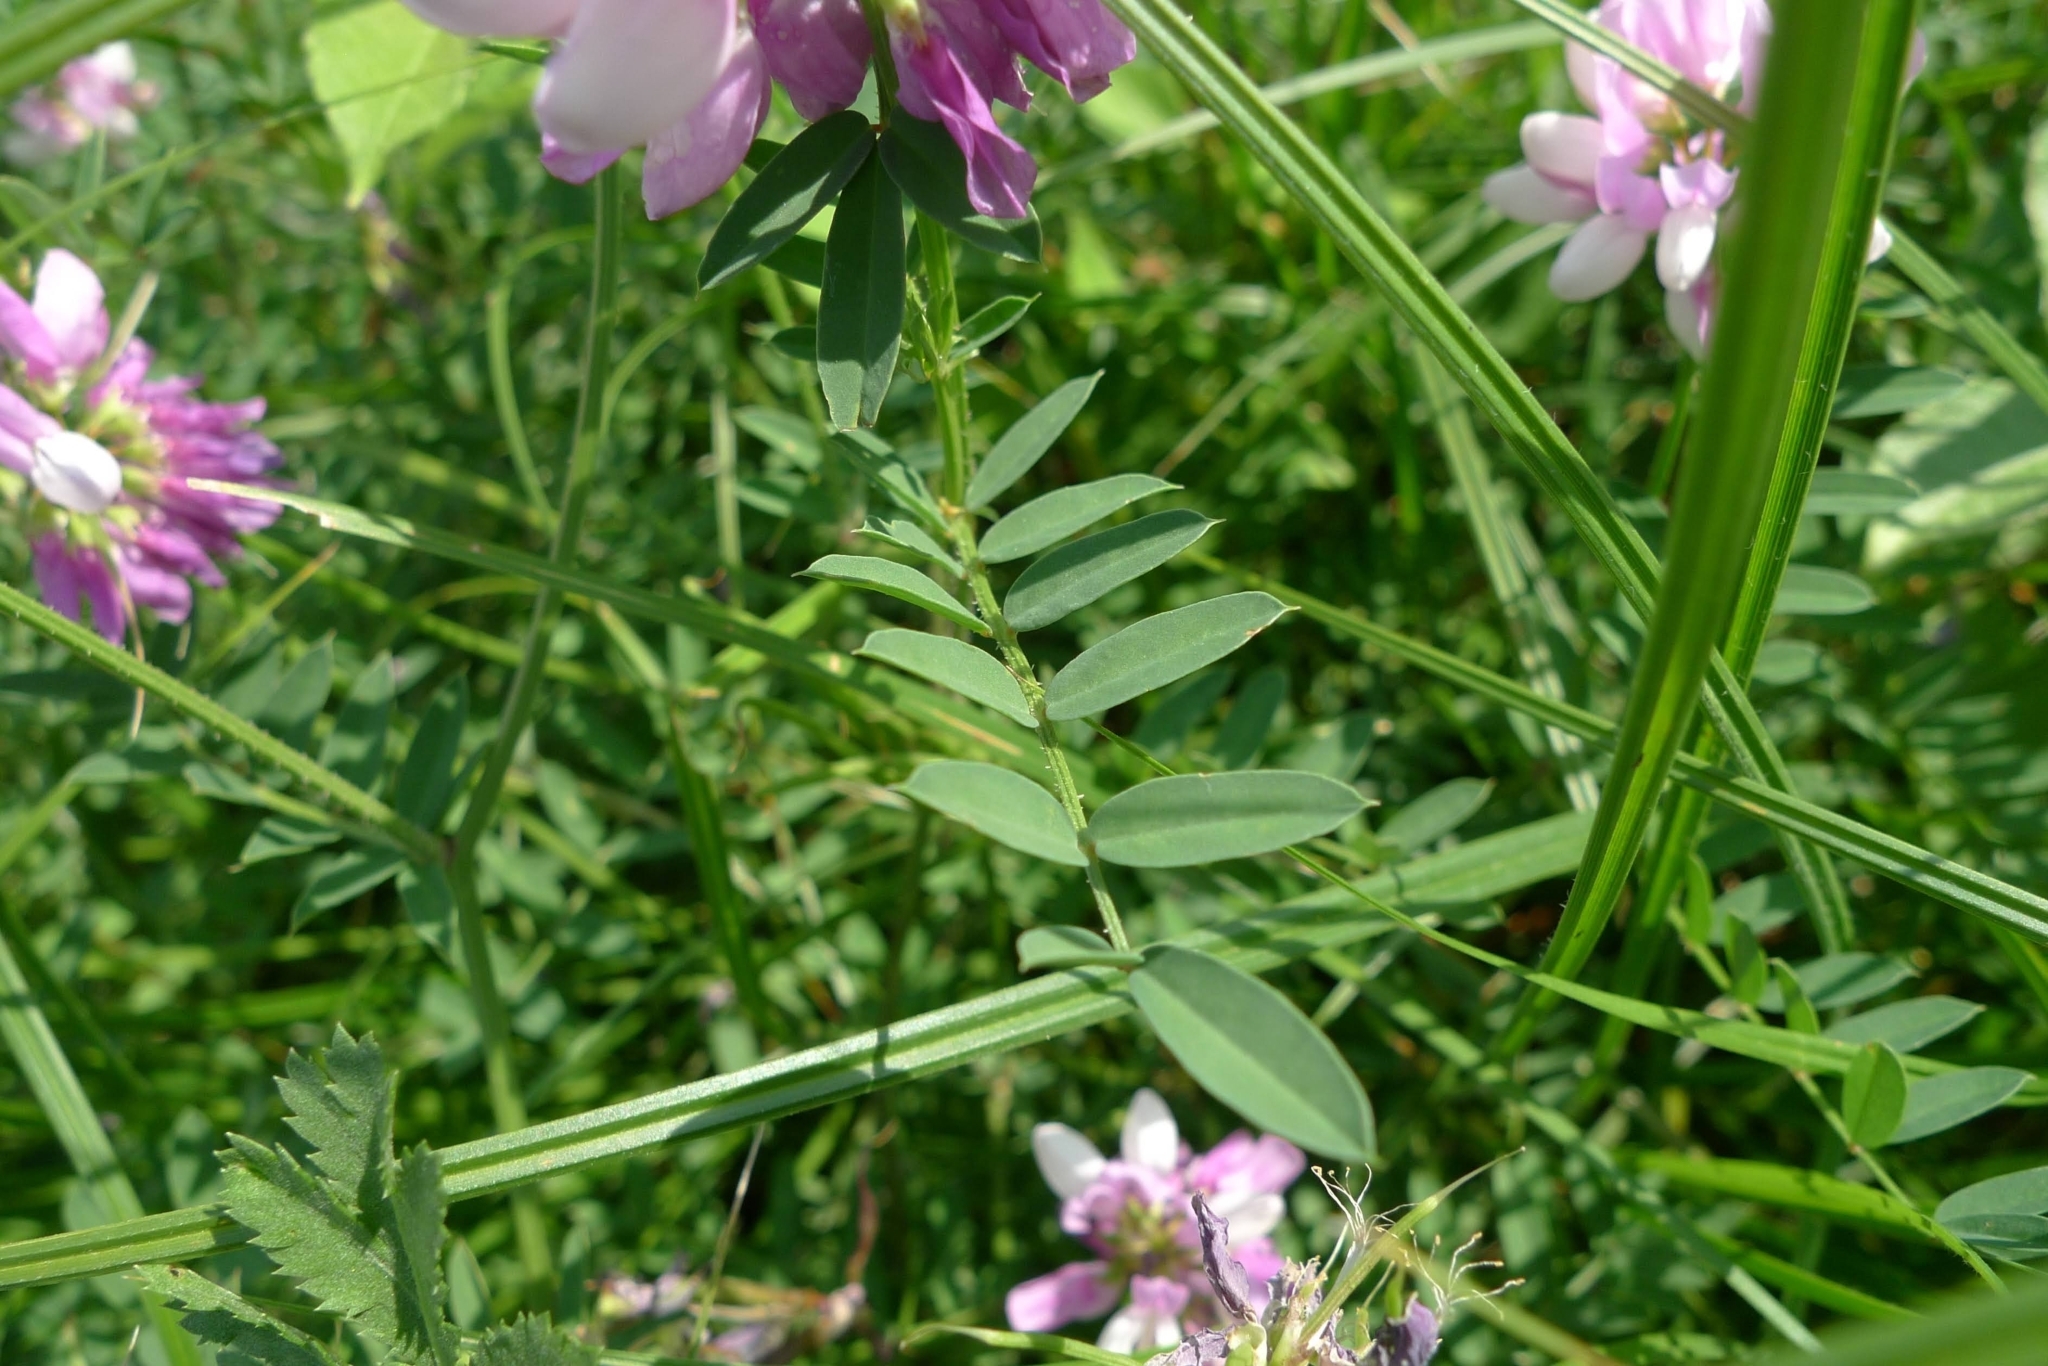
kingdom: Plantae
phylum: Tracheophyta
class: Magnoliopsida
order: Fabales
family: Fabaceae
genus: Coronilla
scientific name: Coronilla varia
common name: Crownvetch
